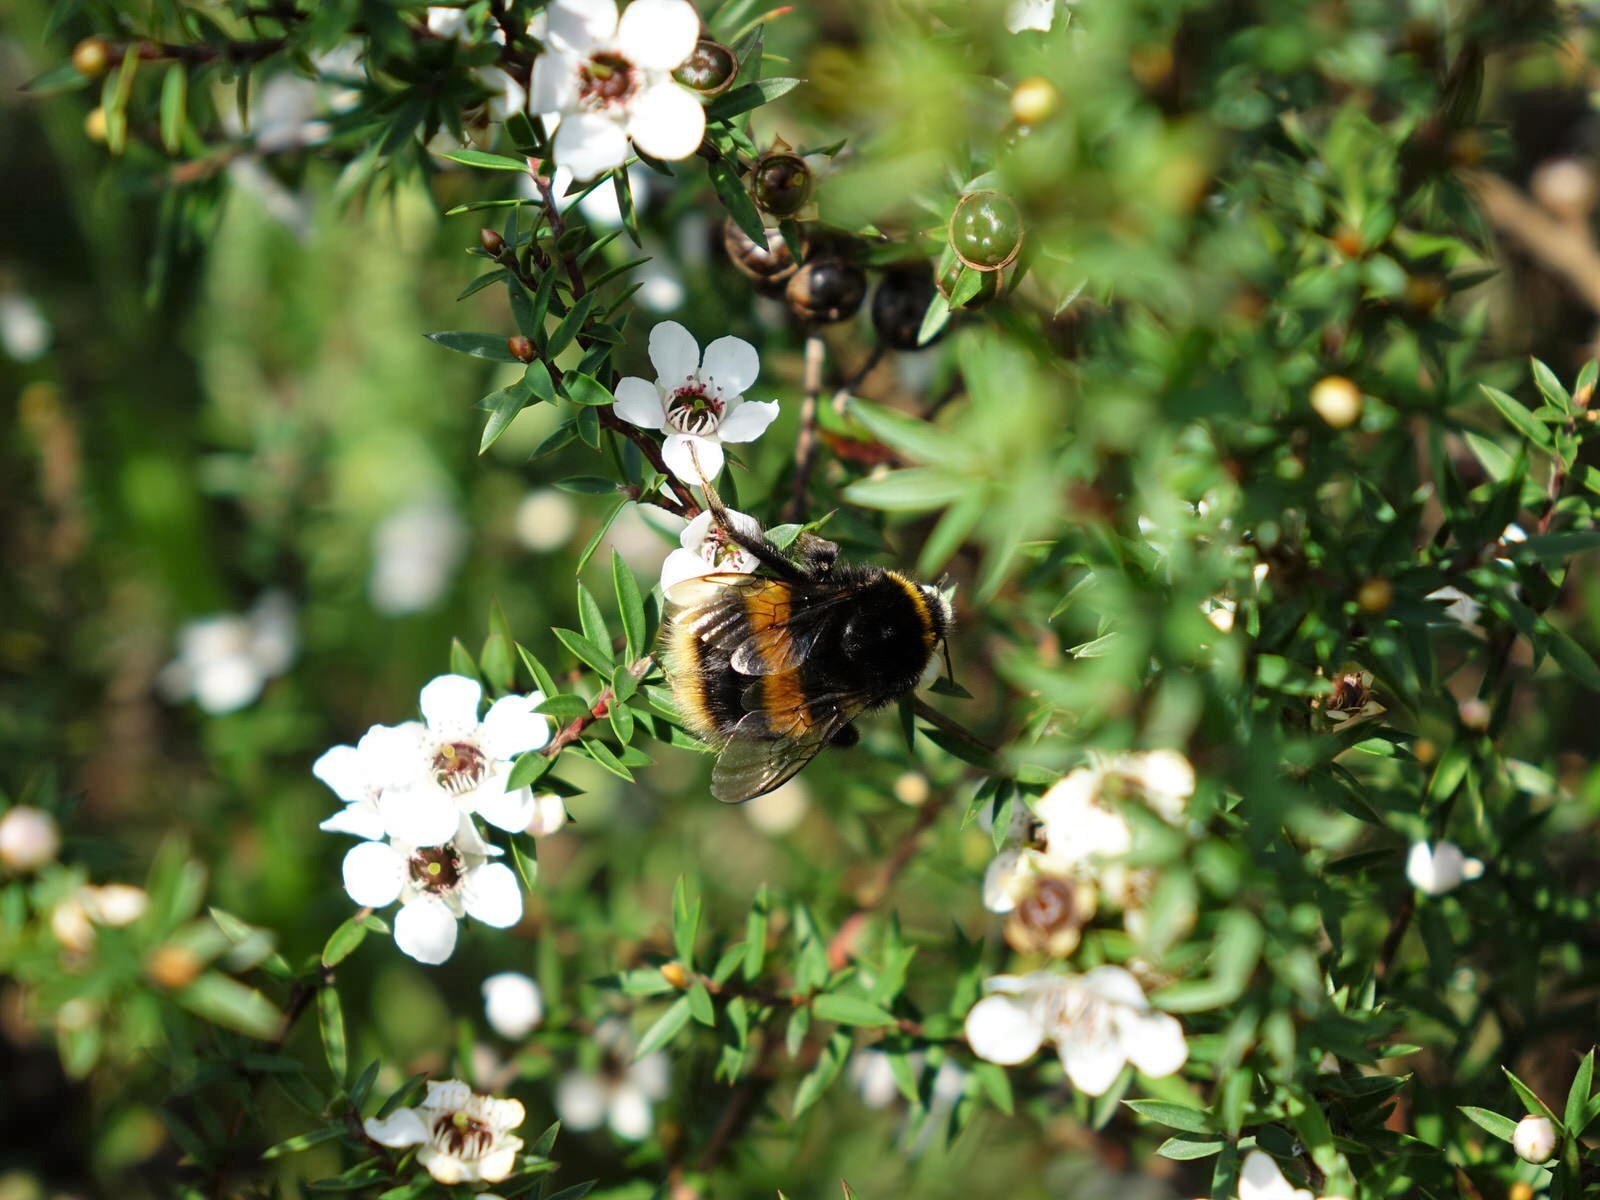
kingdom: Animalia
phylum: Arthropoda
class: Insecta
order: Hymenoptera
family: Apidae
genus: Bombus
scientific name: Bombus terrestris
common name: Buff-tailed bumblebee
